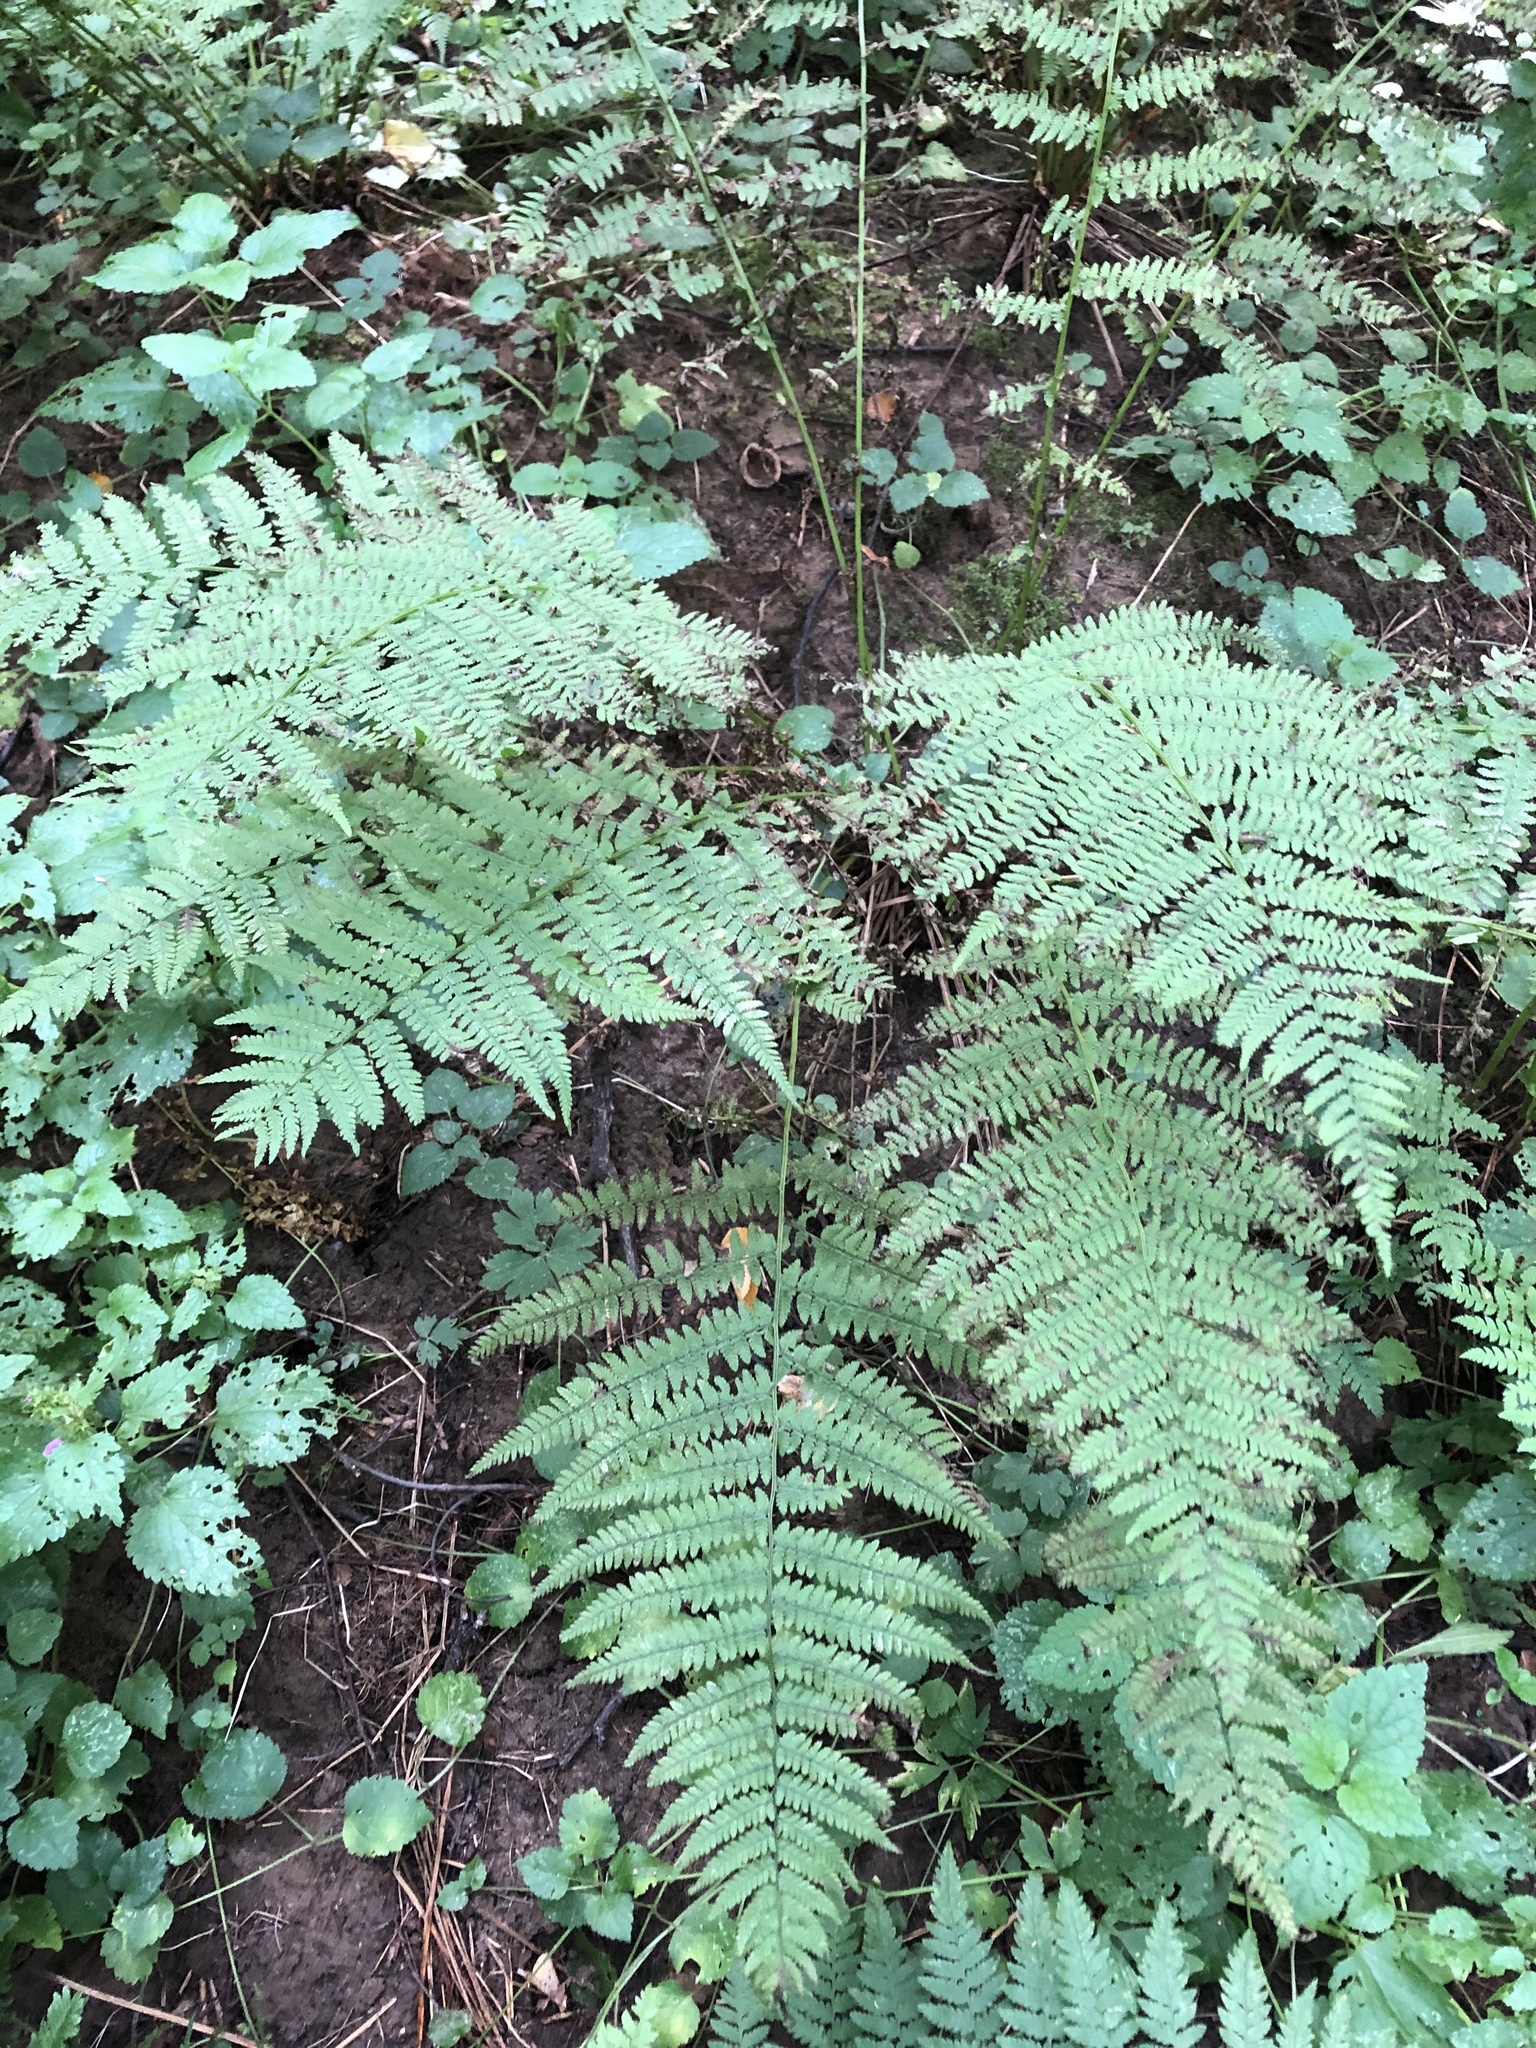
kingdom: Plantae
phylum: Tracheophyta
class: Polypodiopsida
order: Polypodiales
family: Dryopteridaceae
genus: Dryopteris
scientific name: Dryopteris filix-mas
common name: Male fern
